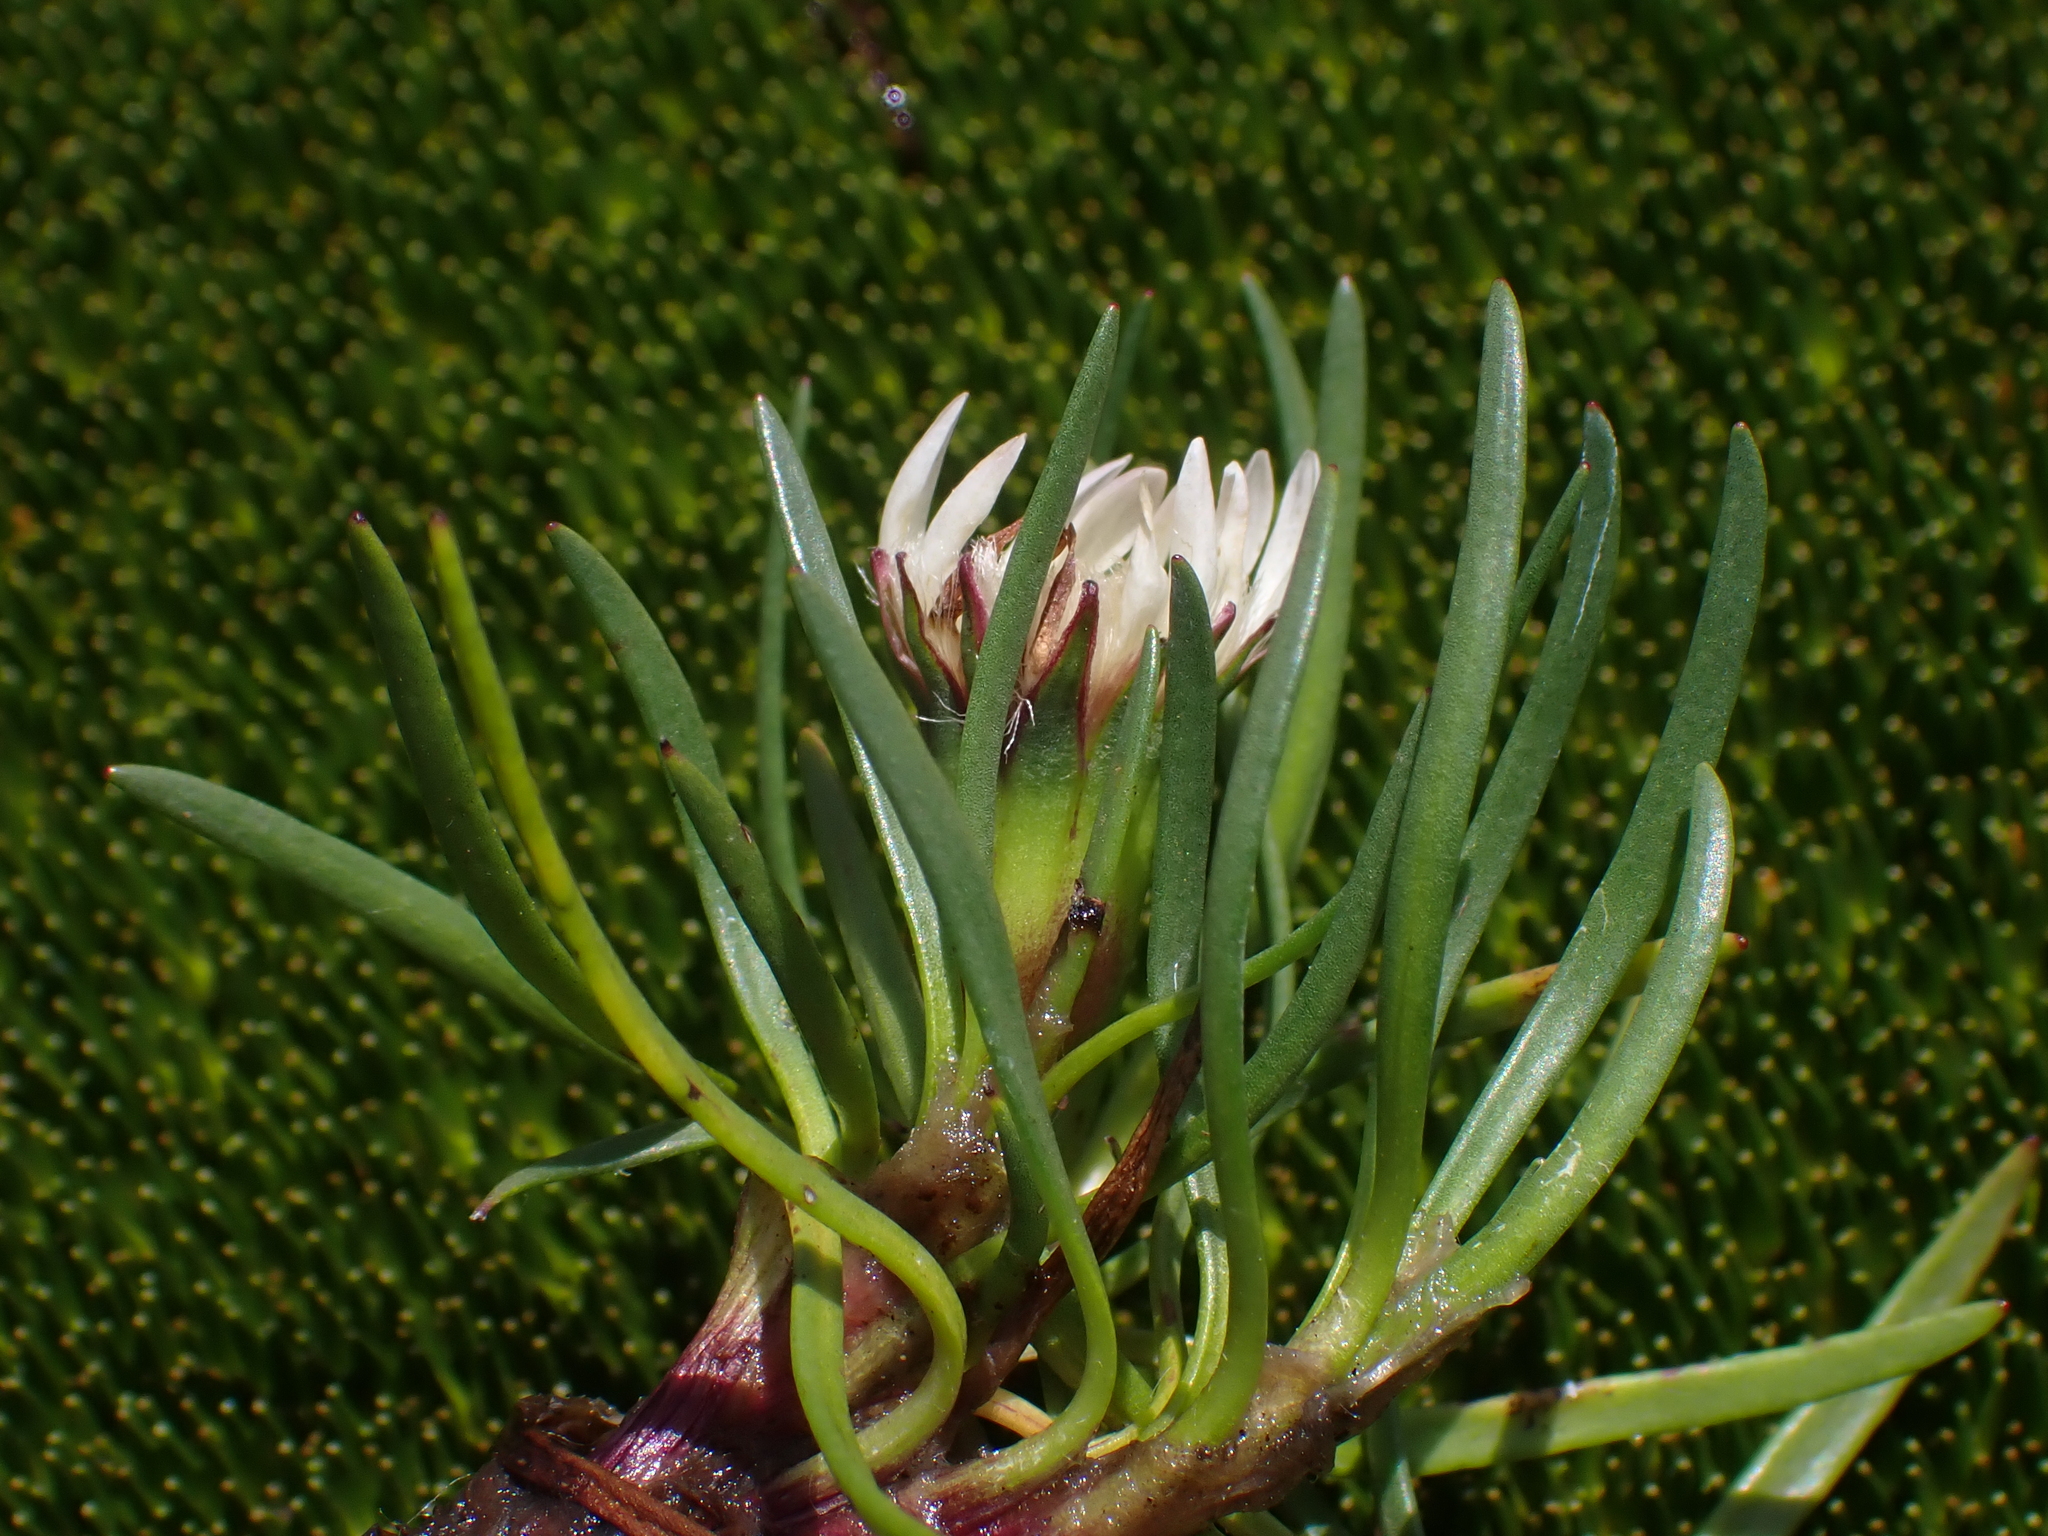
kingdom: Plantae
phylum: Tracheophyta
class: Magnoliopsida
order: Asterales
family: Asteraceae
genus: Rockhausenia
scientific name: Rockhausenia pygmaea
